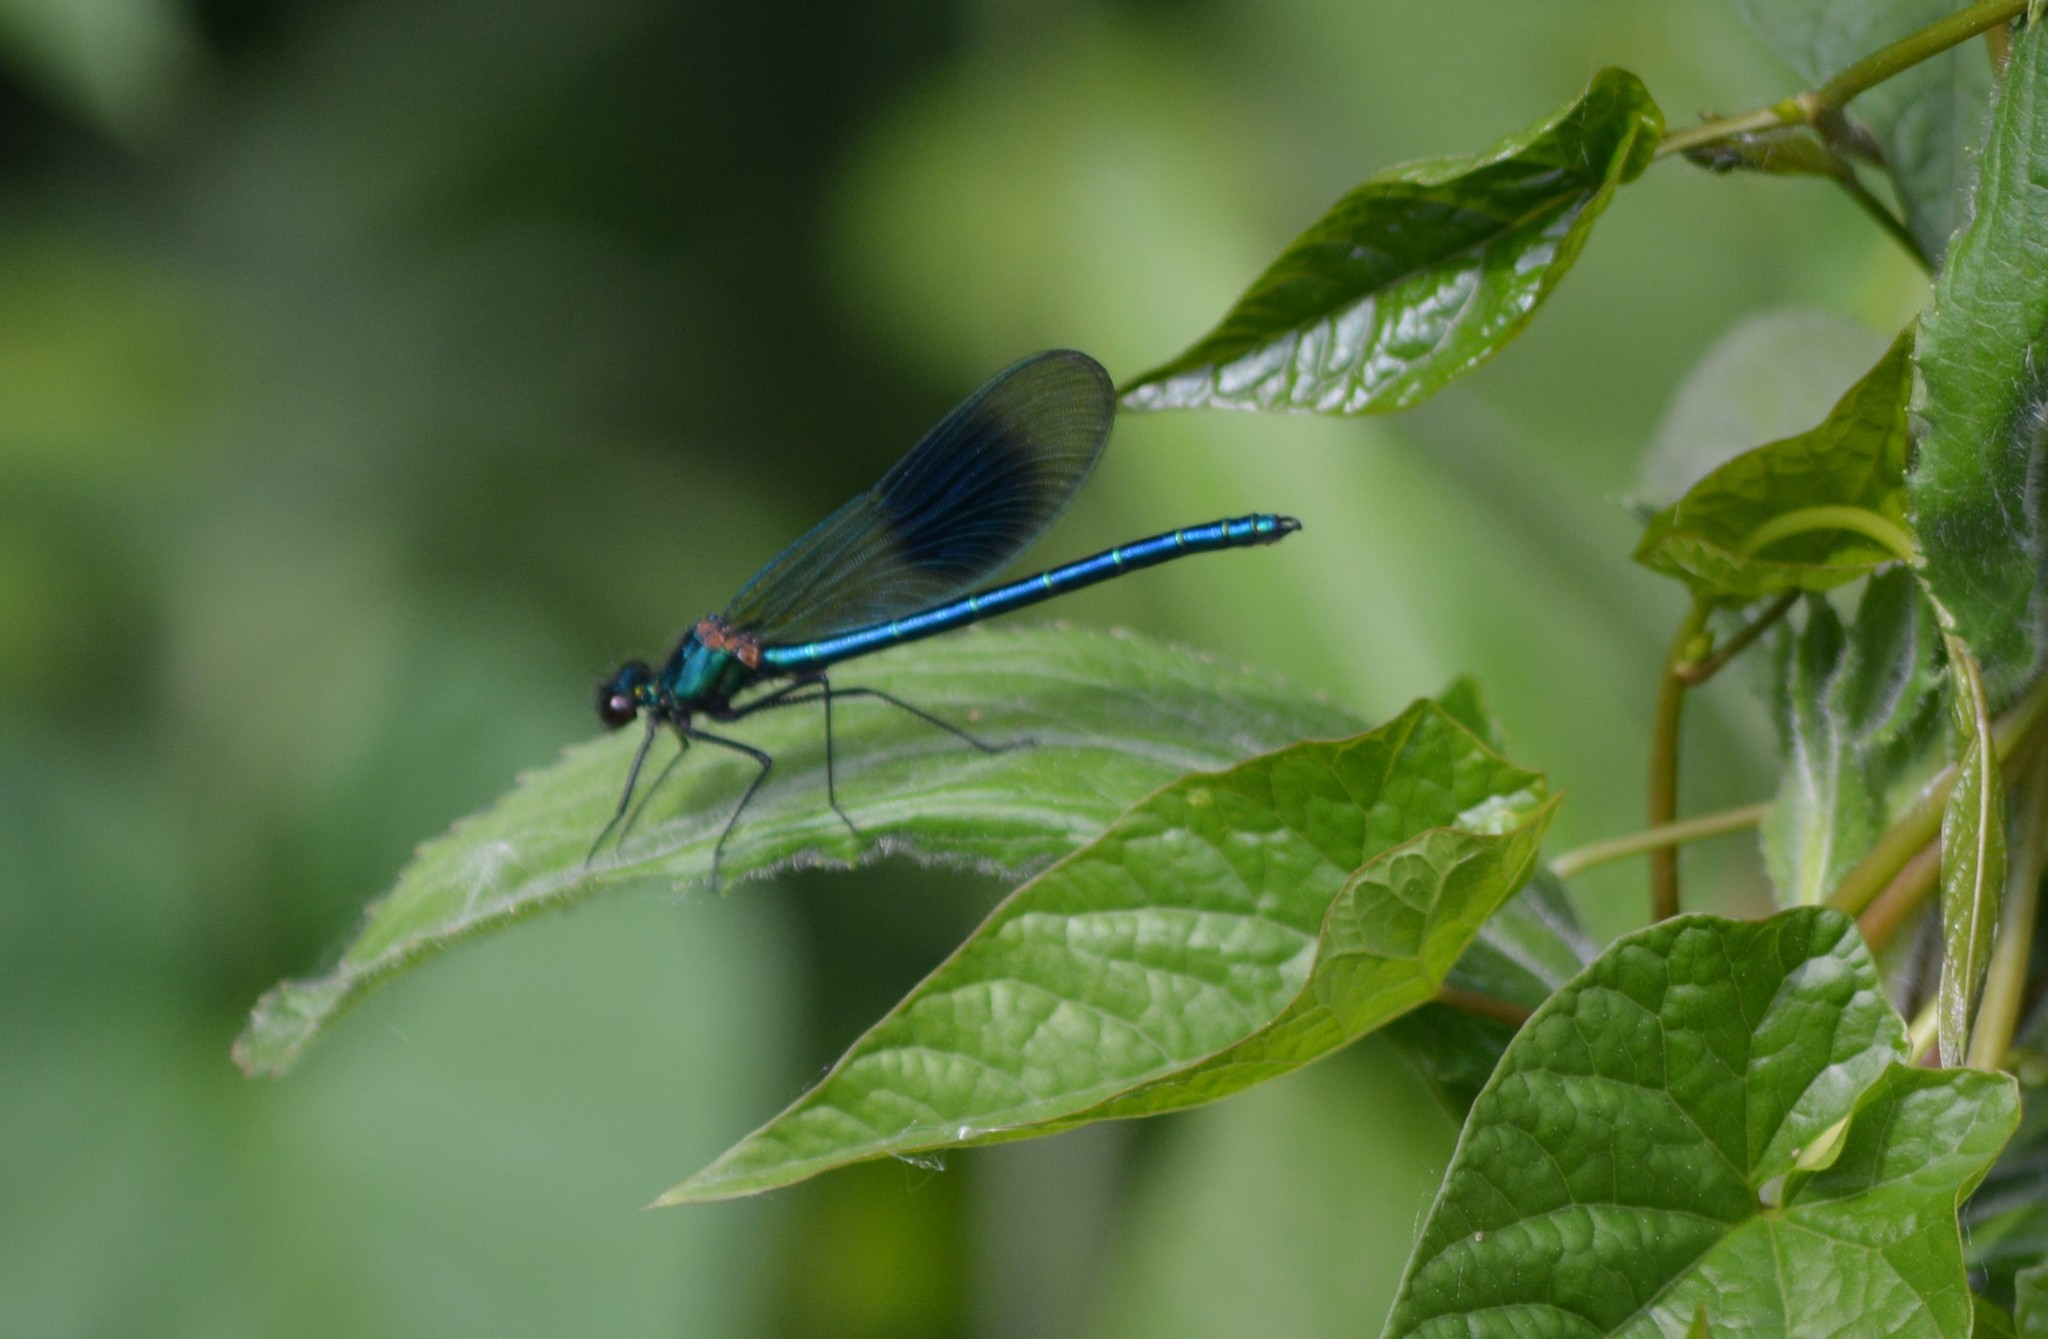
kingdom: Animalia
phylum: Arthropoda
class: Insecta
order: Odonata
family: Calopterygidae
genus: Calopteryx
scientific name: Calopteryx splendens
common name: Banded demoiselle
